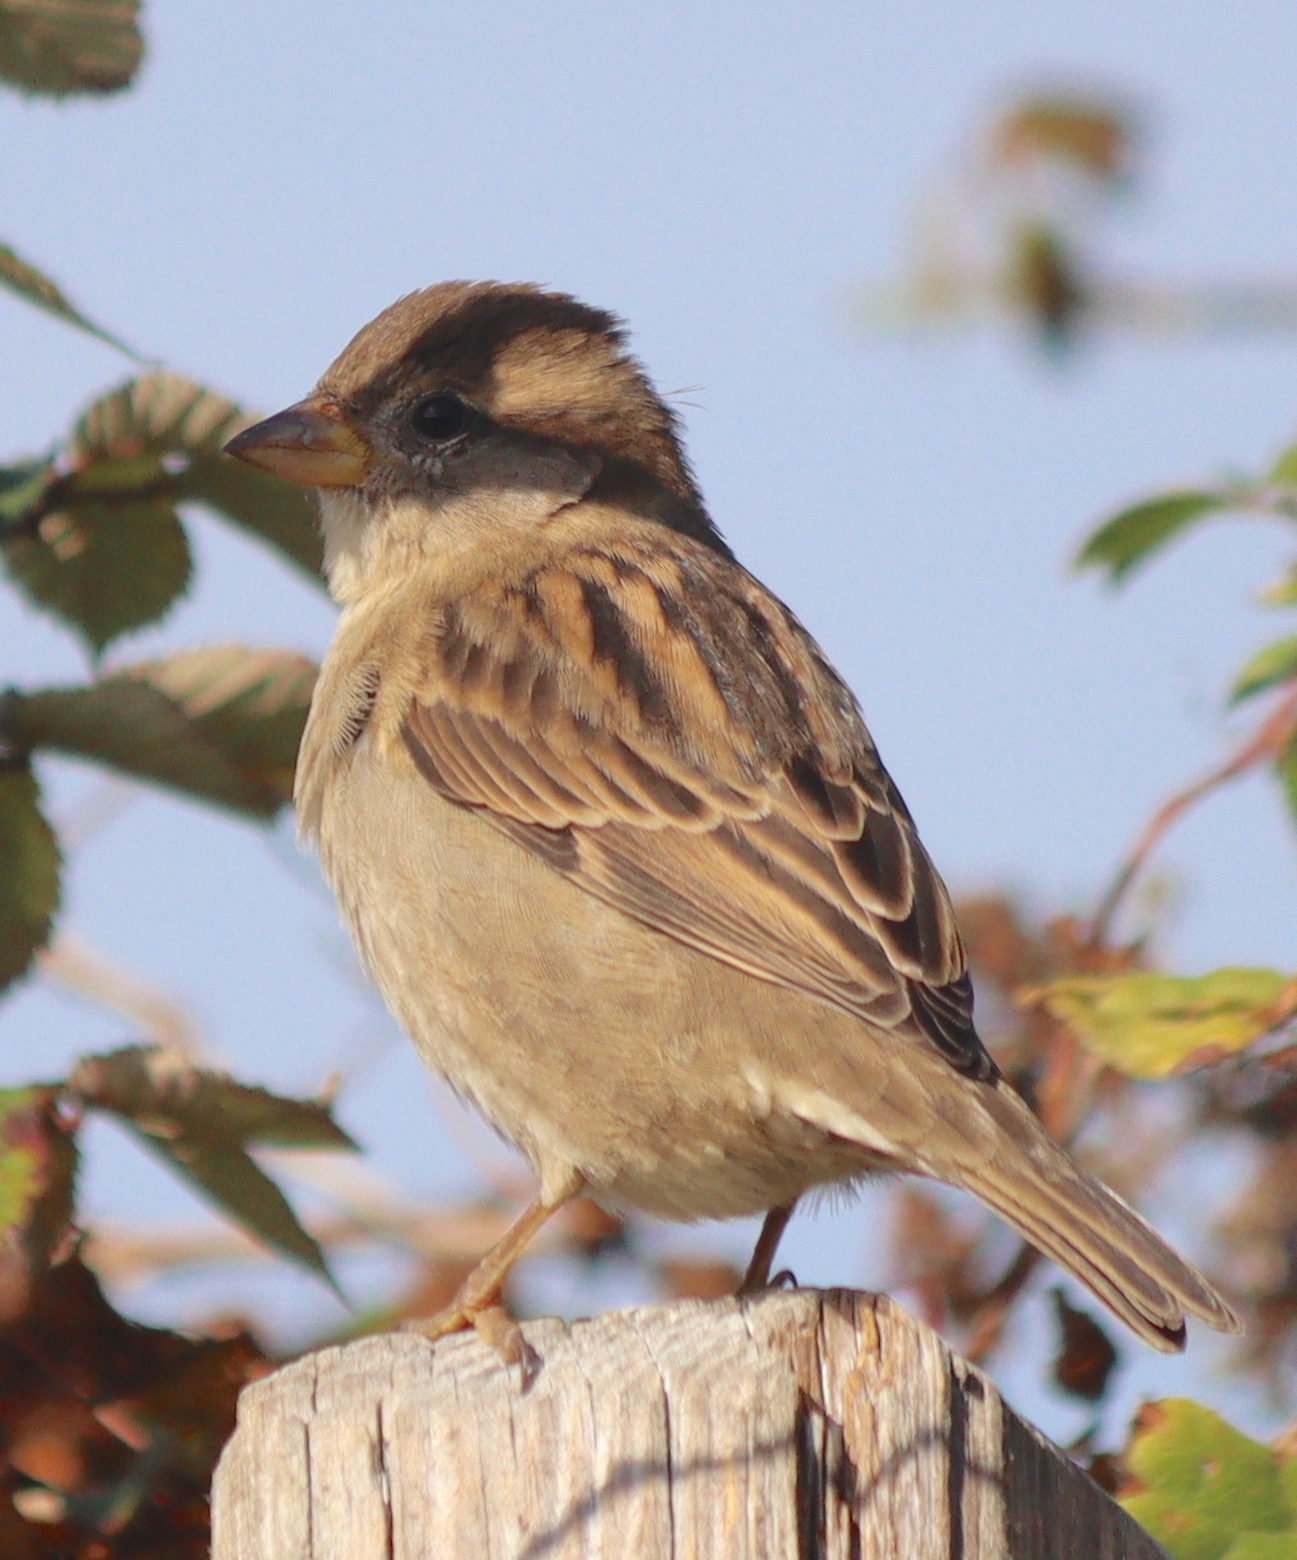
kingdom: Animalia
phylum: Chordata
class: Aves
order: Passeriformes
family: Passeridae
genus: Passer
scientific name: Passer domesticus
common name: House sparrow
